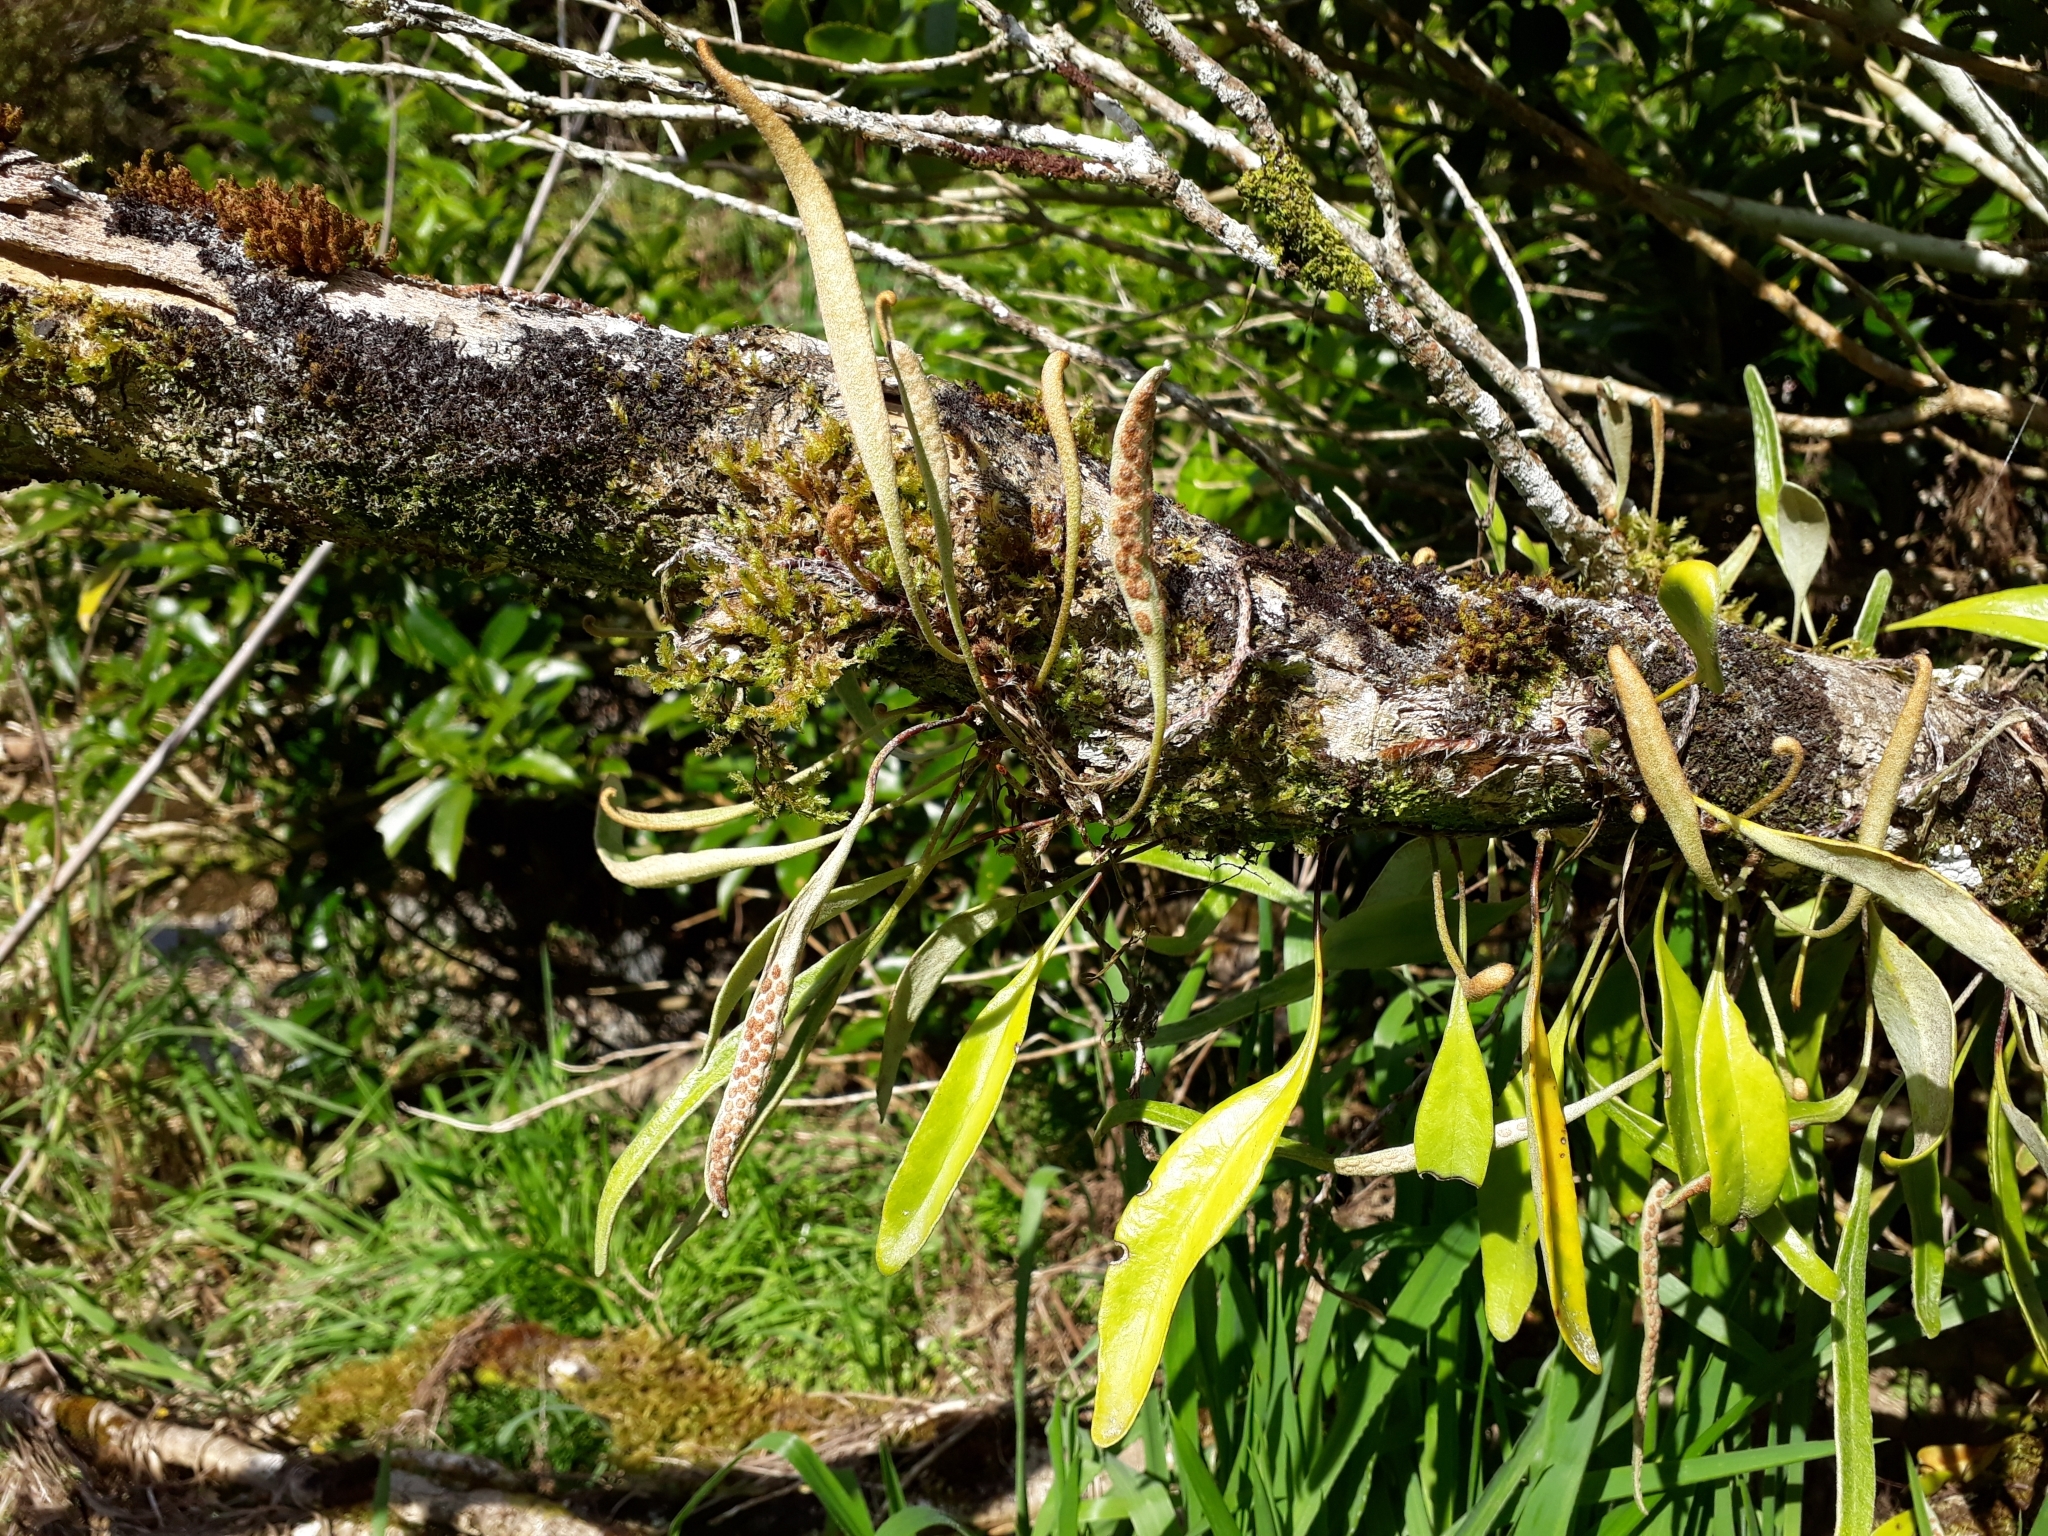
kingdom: Plantae
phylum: Tracheophyta
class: Polypodiopsida
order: Polypodiales
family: Polypodiaceae
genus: Pyrrosia
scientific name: Pyrrosia eleagnifolia
